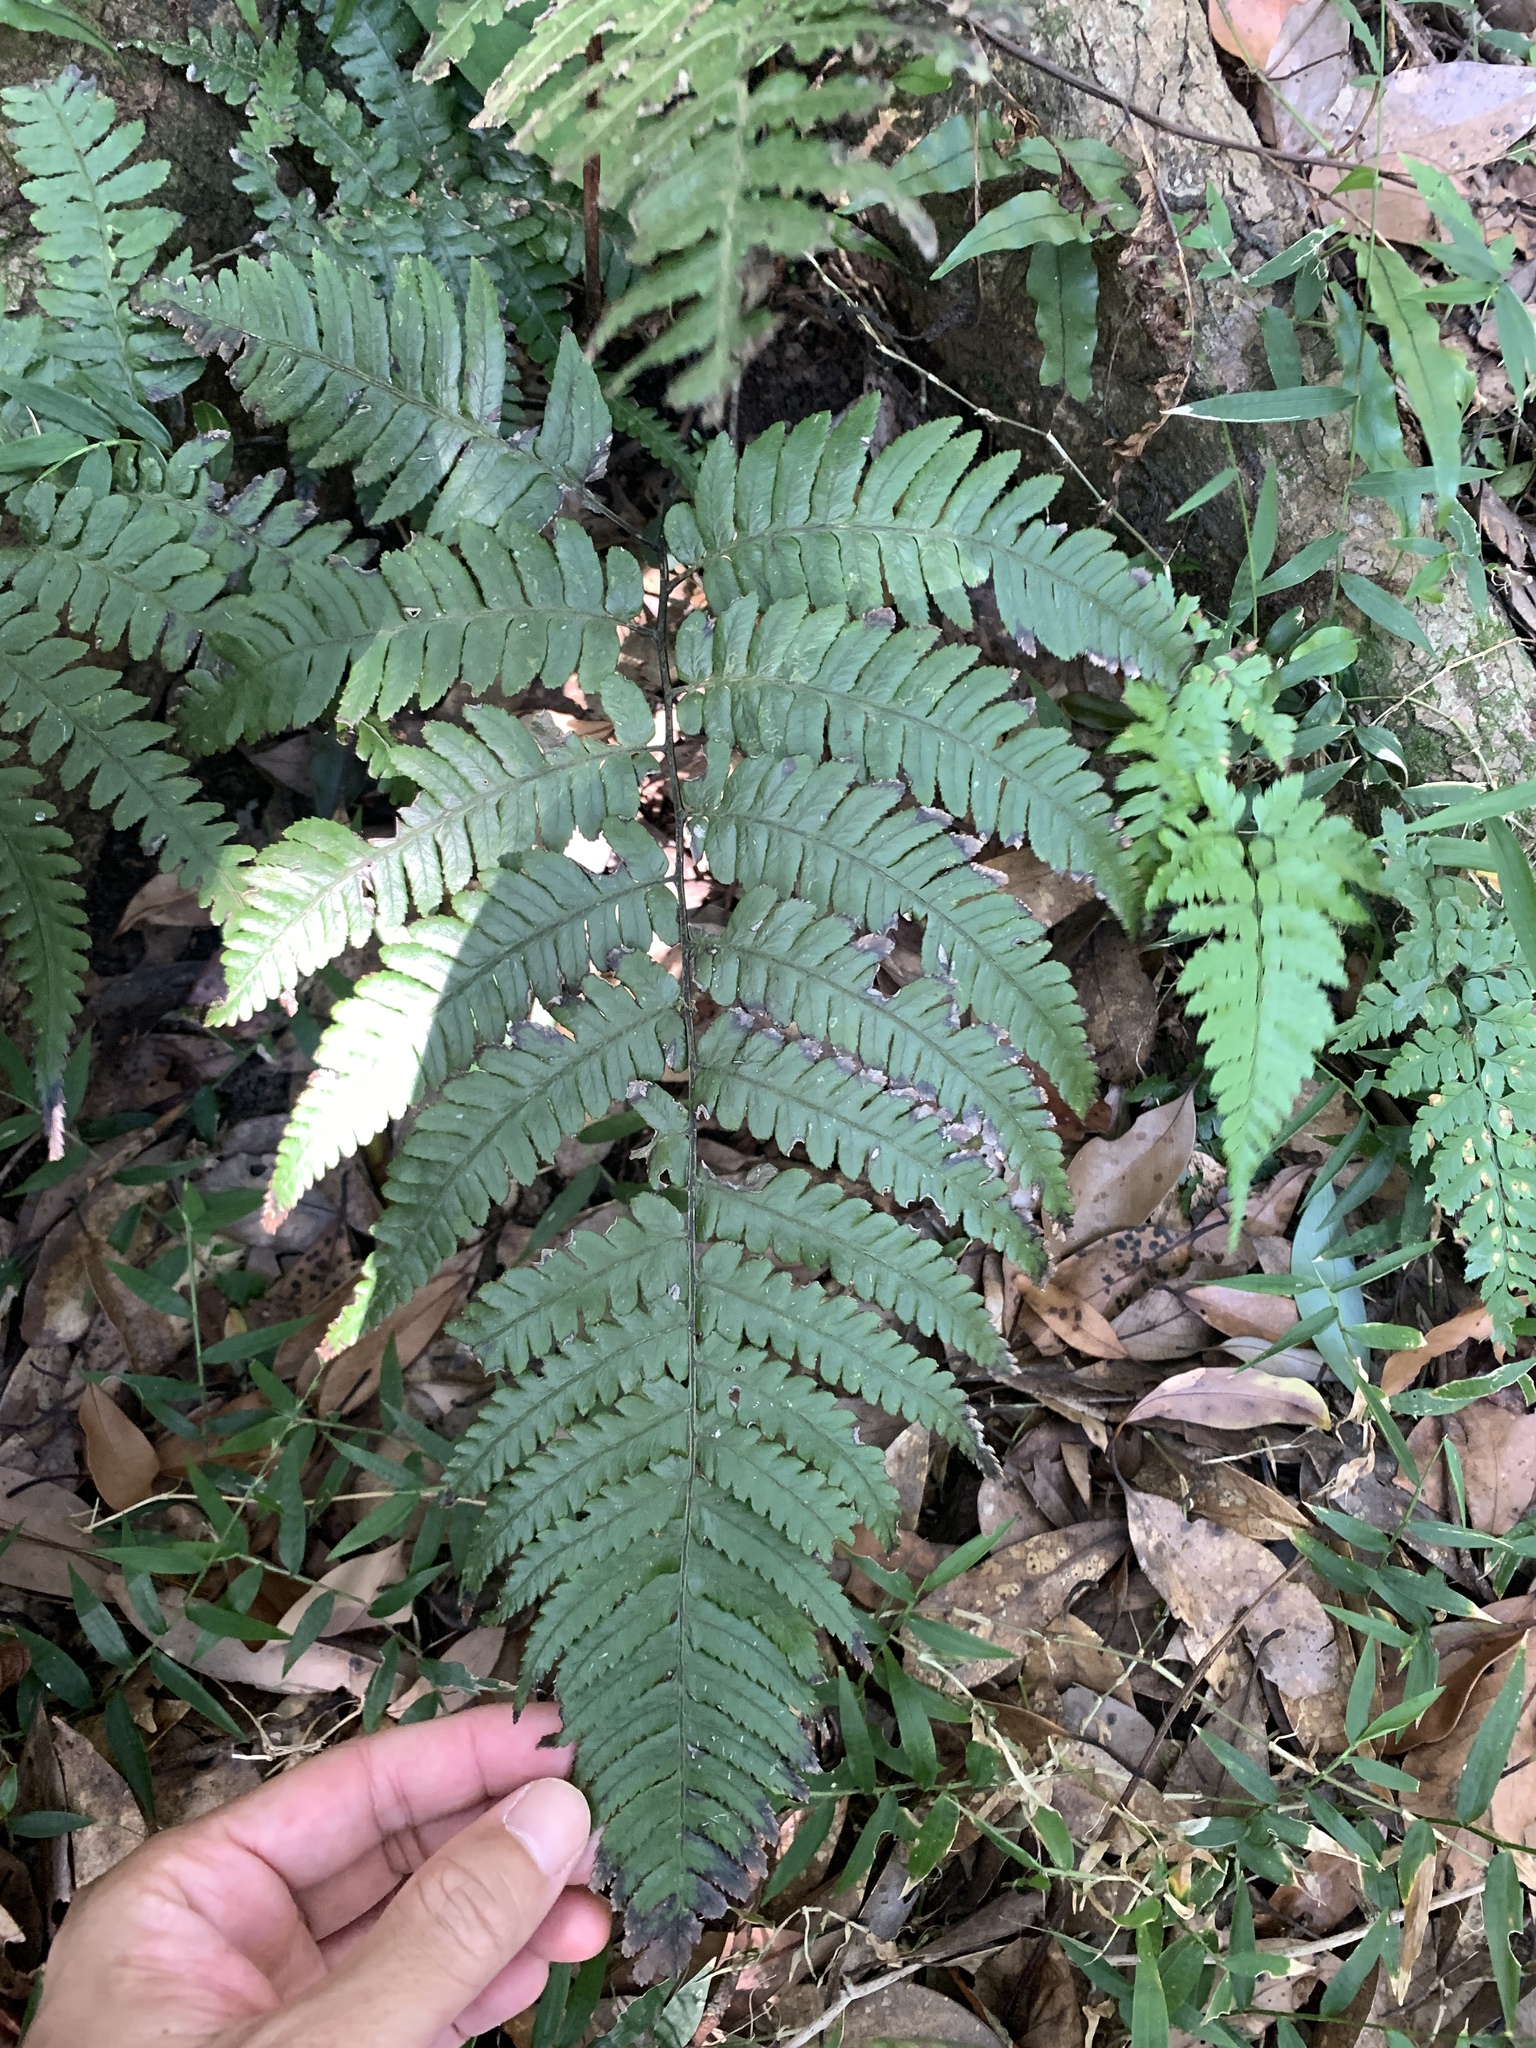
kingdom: Plantae
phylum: Tracheophyta
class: Polypodiopsida
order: Polypodiales
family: Athyriaceae
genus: Diplazium
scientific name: Diplazium petri
